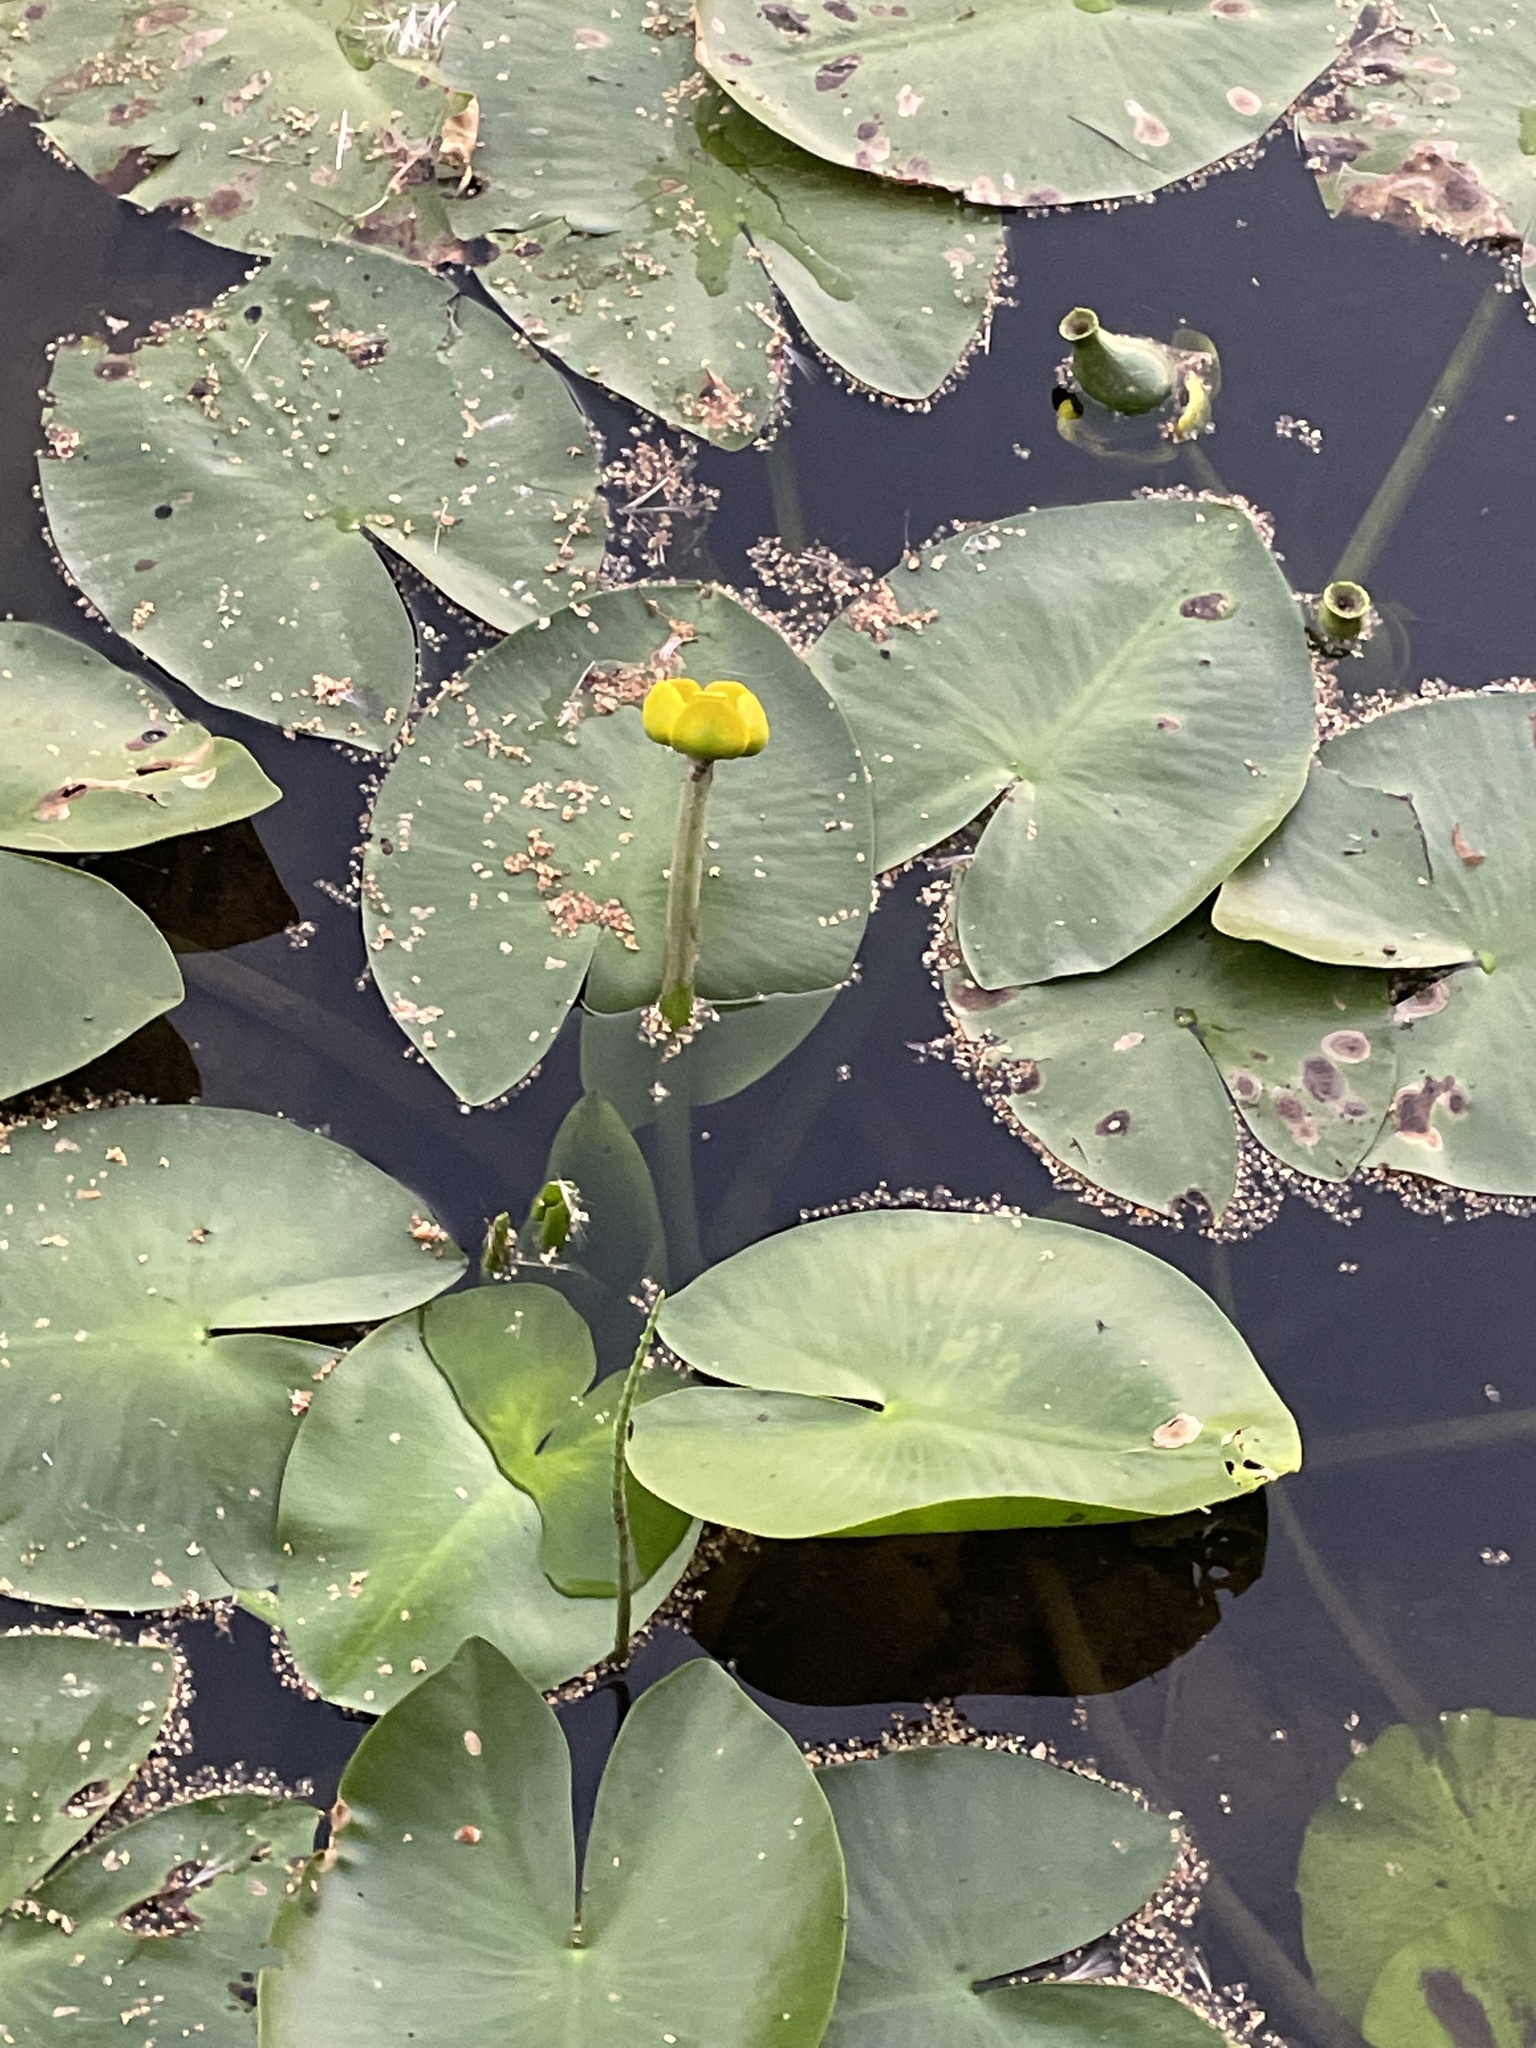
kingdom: Plantae
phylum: Tracheophyta
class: Magnoliopsida
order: Nymphaeales
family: Nymphaeaceae
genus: Nuphar
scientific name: Nuphar lutea
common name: Yellow water-lily
